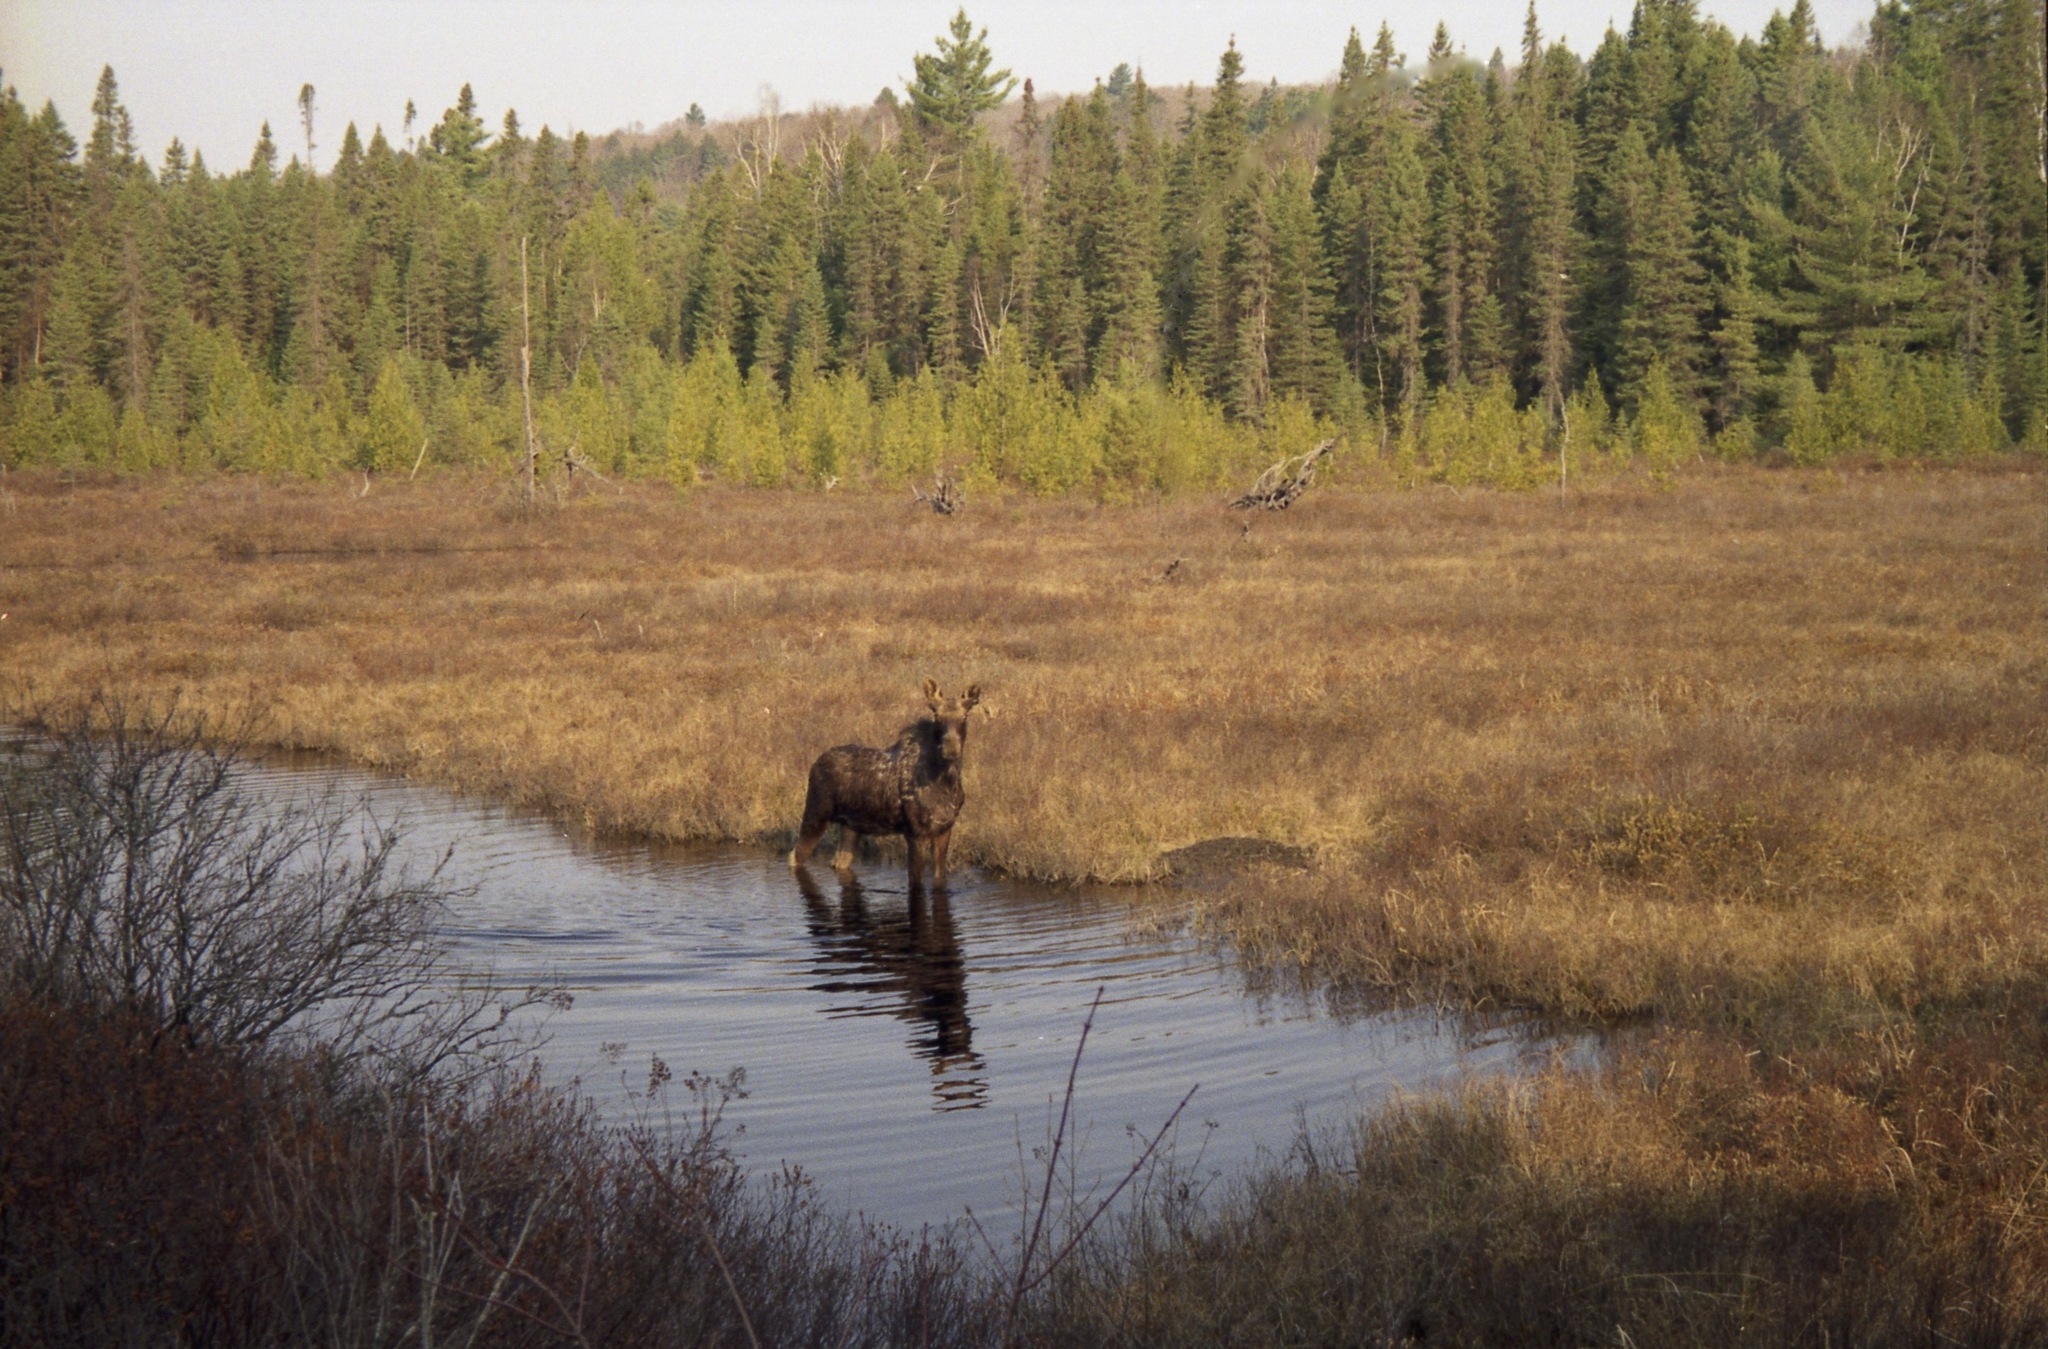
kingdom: Animalia
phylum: Chordata
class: Mammalia
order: Artiodactyla
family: Cervidae
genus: Alces
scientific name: Alces alces
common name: Moose
